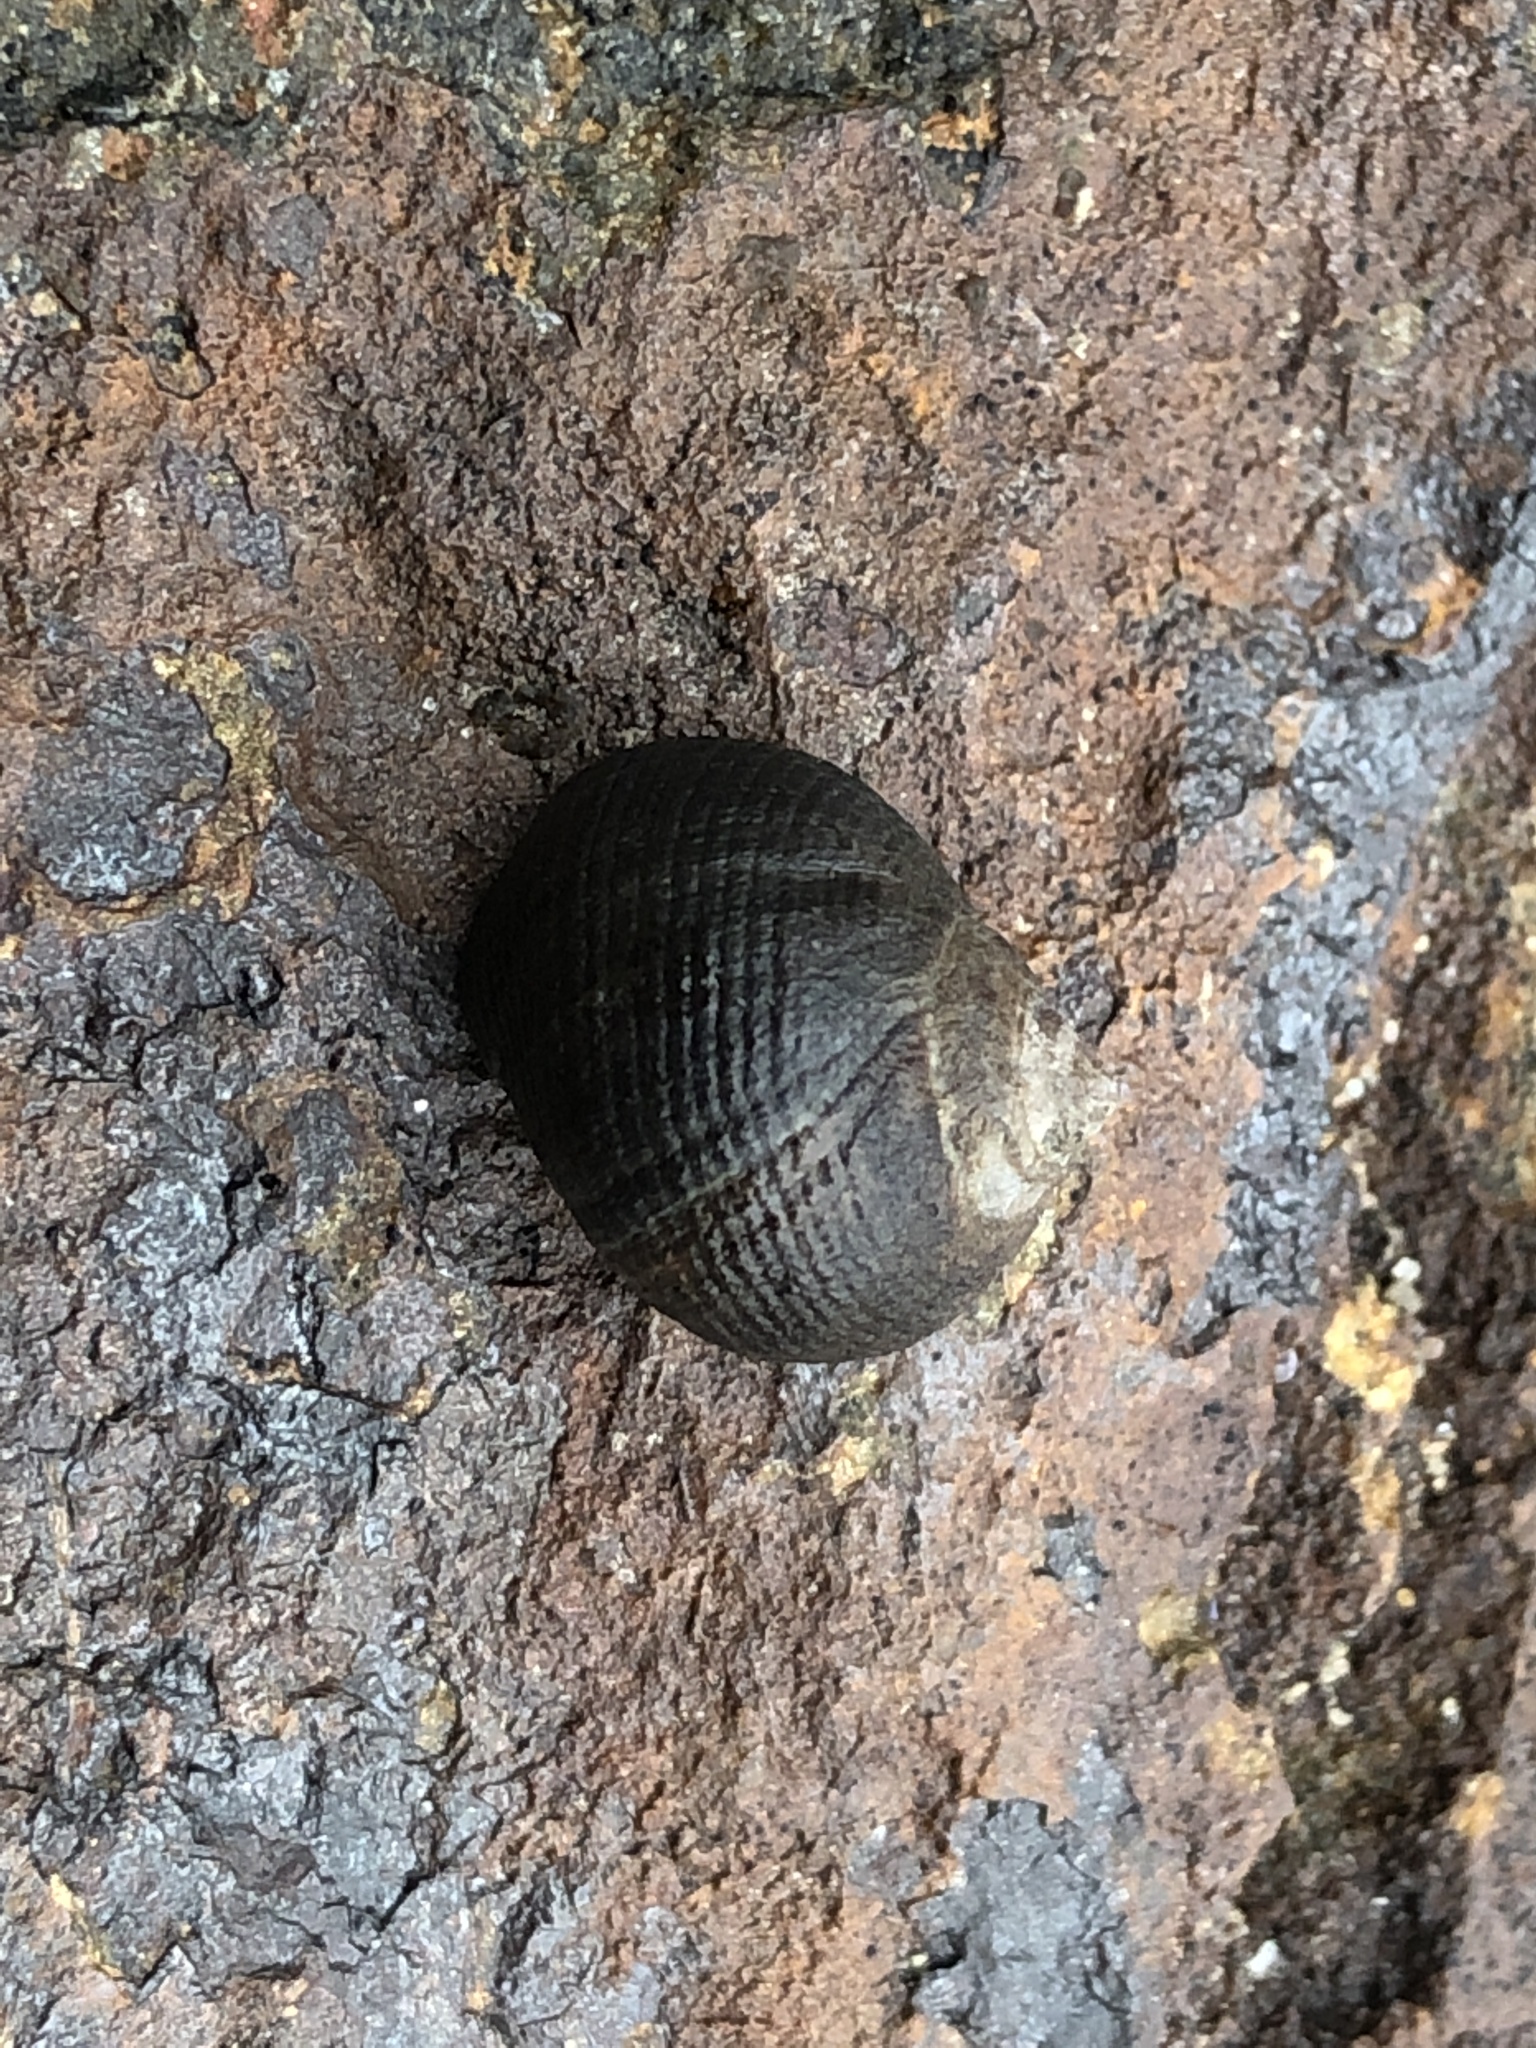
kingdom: Animalia
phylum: Mollusca
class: Gastropoda
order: Littorinimorpha
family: Littorinidae
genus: Littorina
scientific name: Littorina littorea
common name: Common periwinkle
